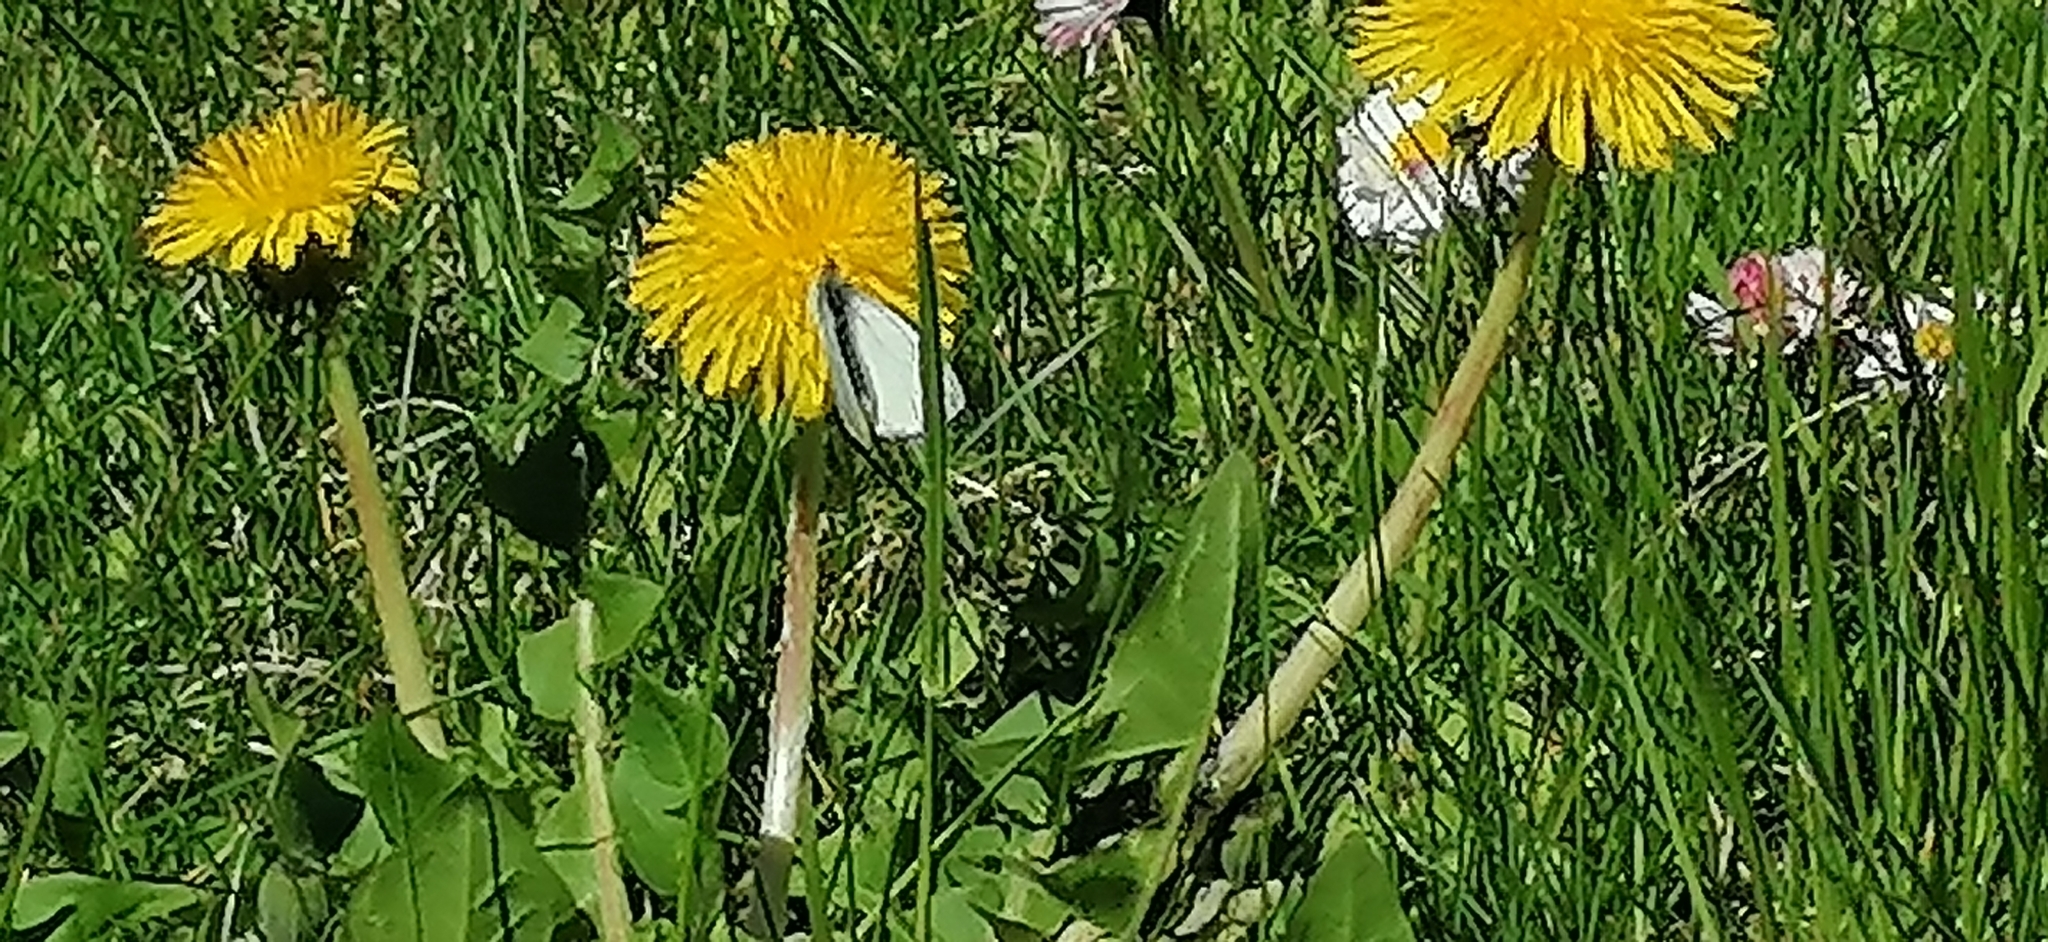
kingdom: Animalia
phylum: Arthropoda
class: Insecta
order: Lepidoptera
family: Pieridae
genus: Pieris
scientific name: Pieris napi
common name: Green-veined white
